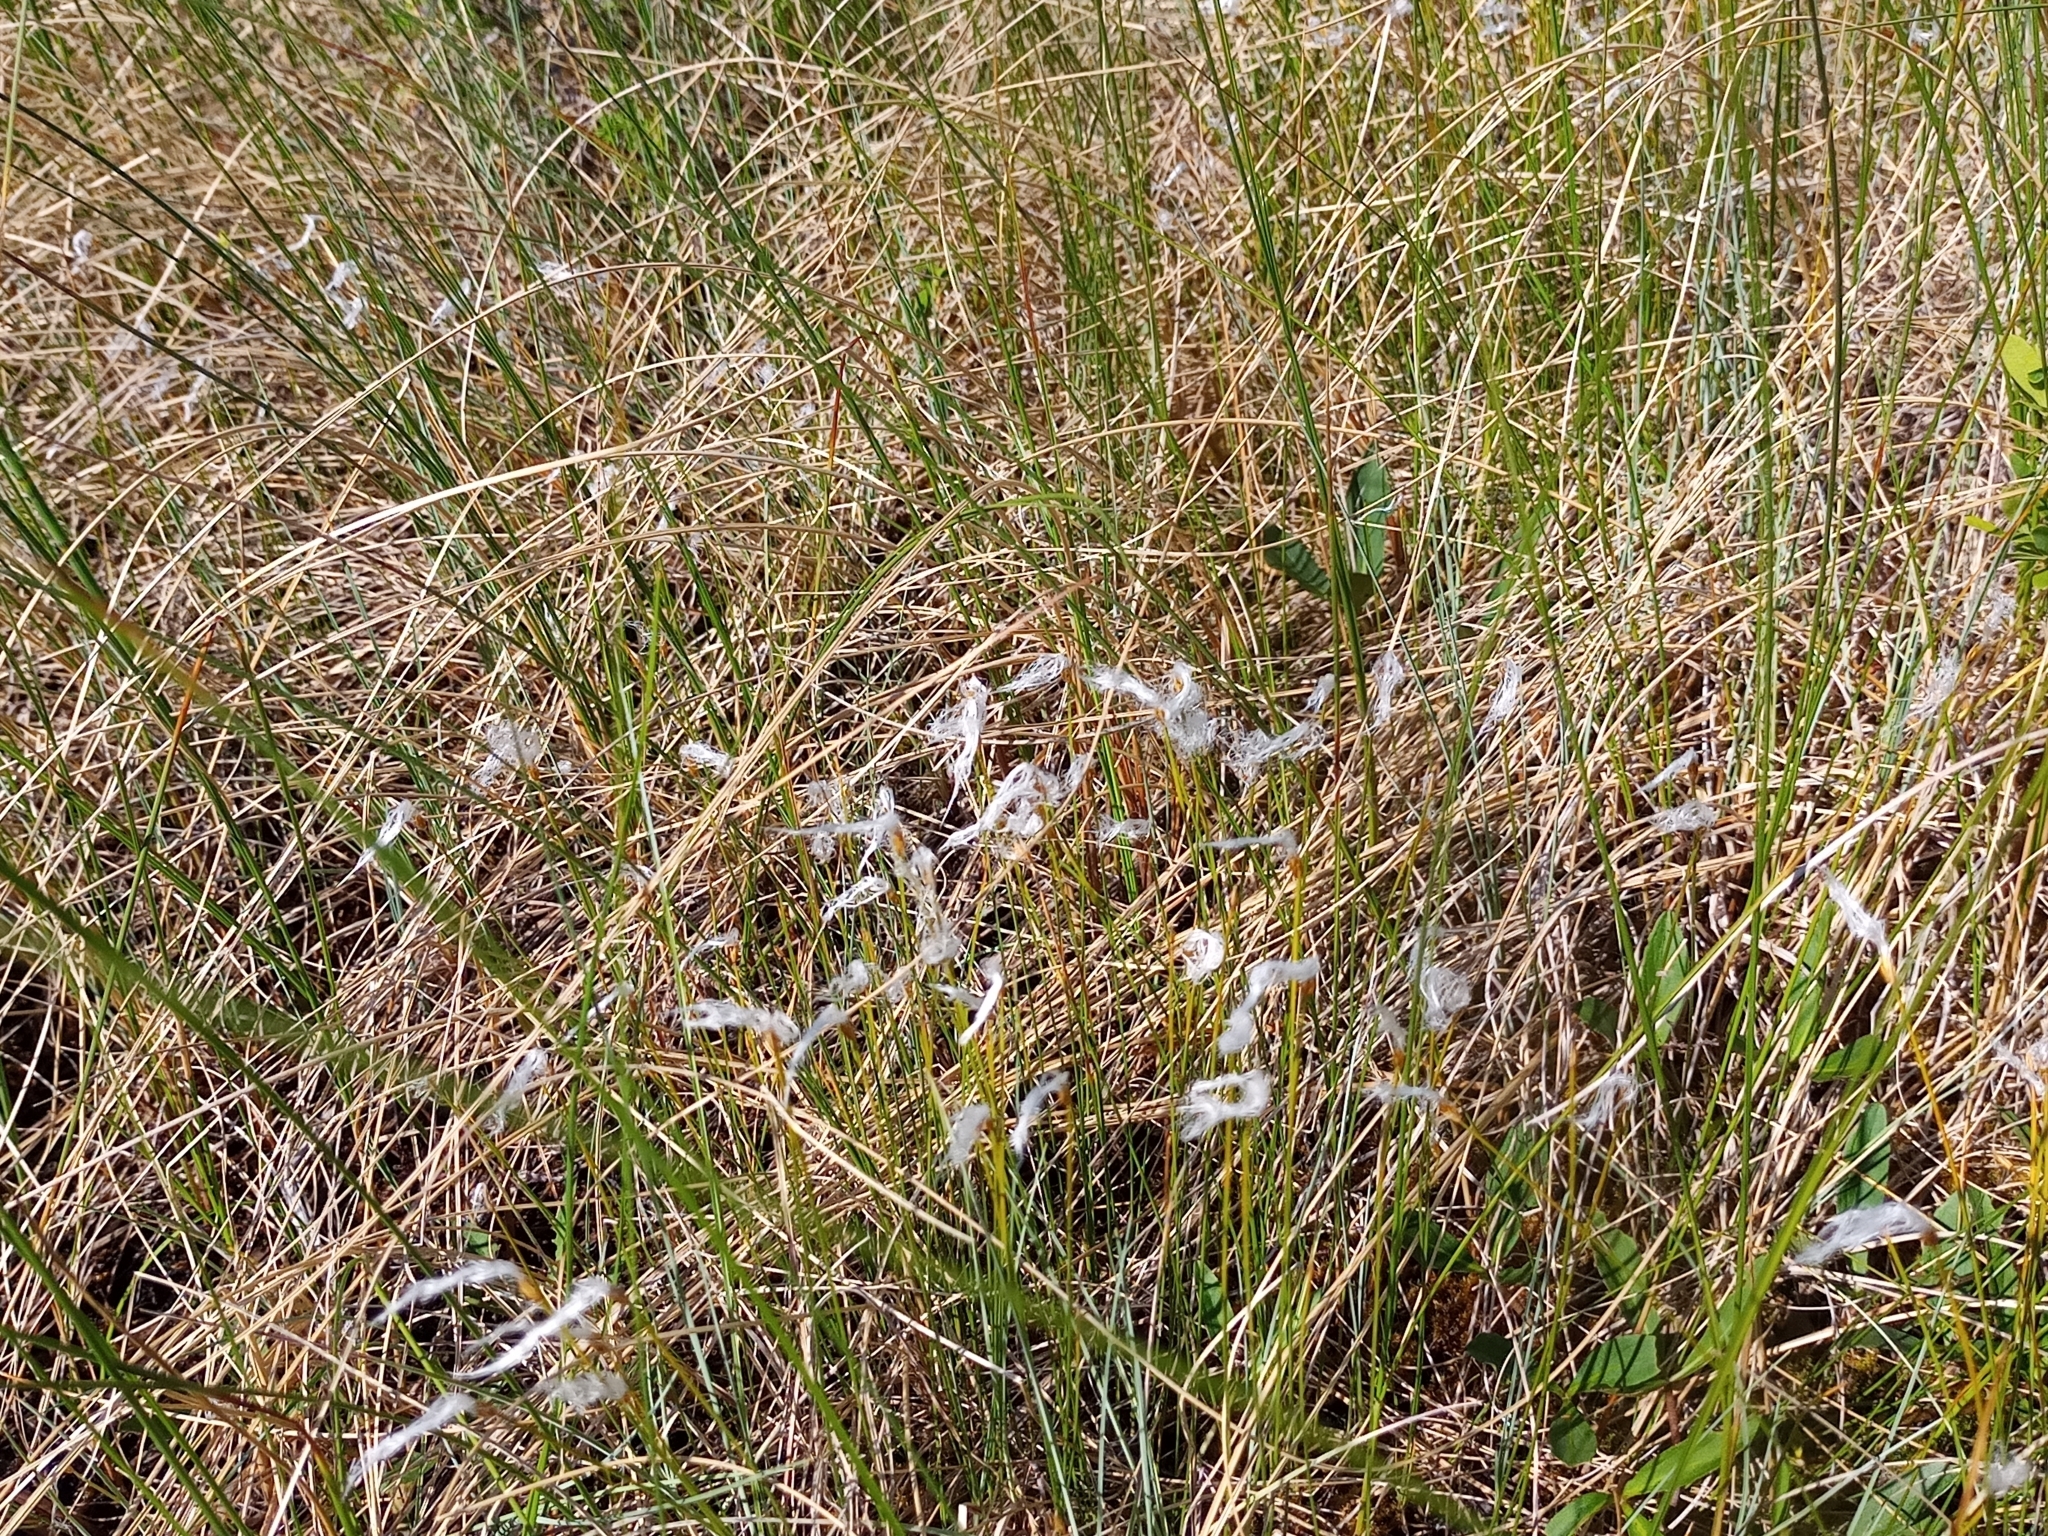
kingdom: Plantae
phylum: Tracheophyta
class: Liliopsida
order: Poales
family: Cyperaceae
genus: Trichophorum
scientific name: Trichophorum alpinum
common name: Alpine bulrush
